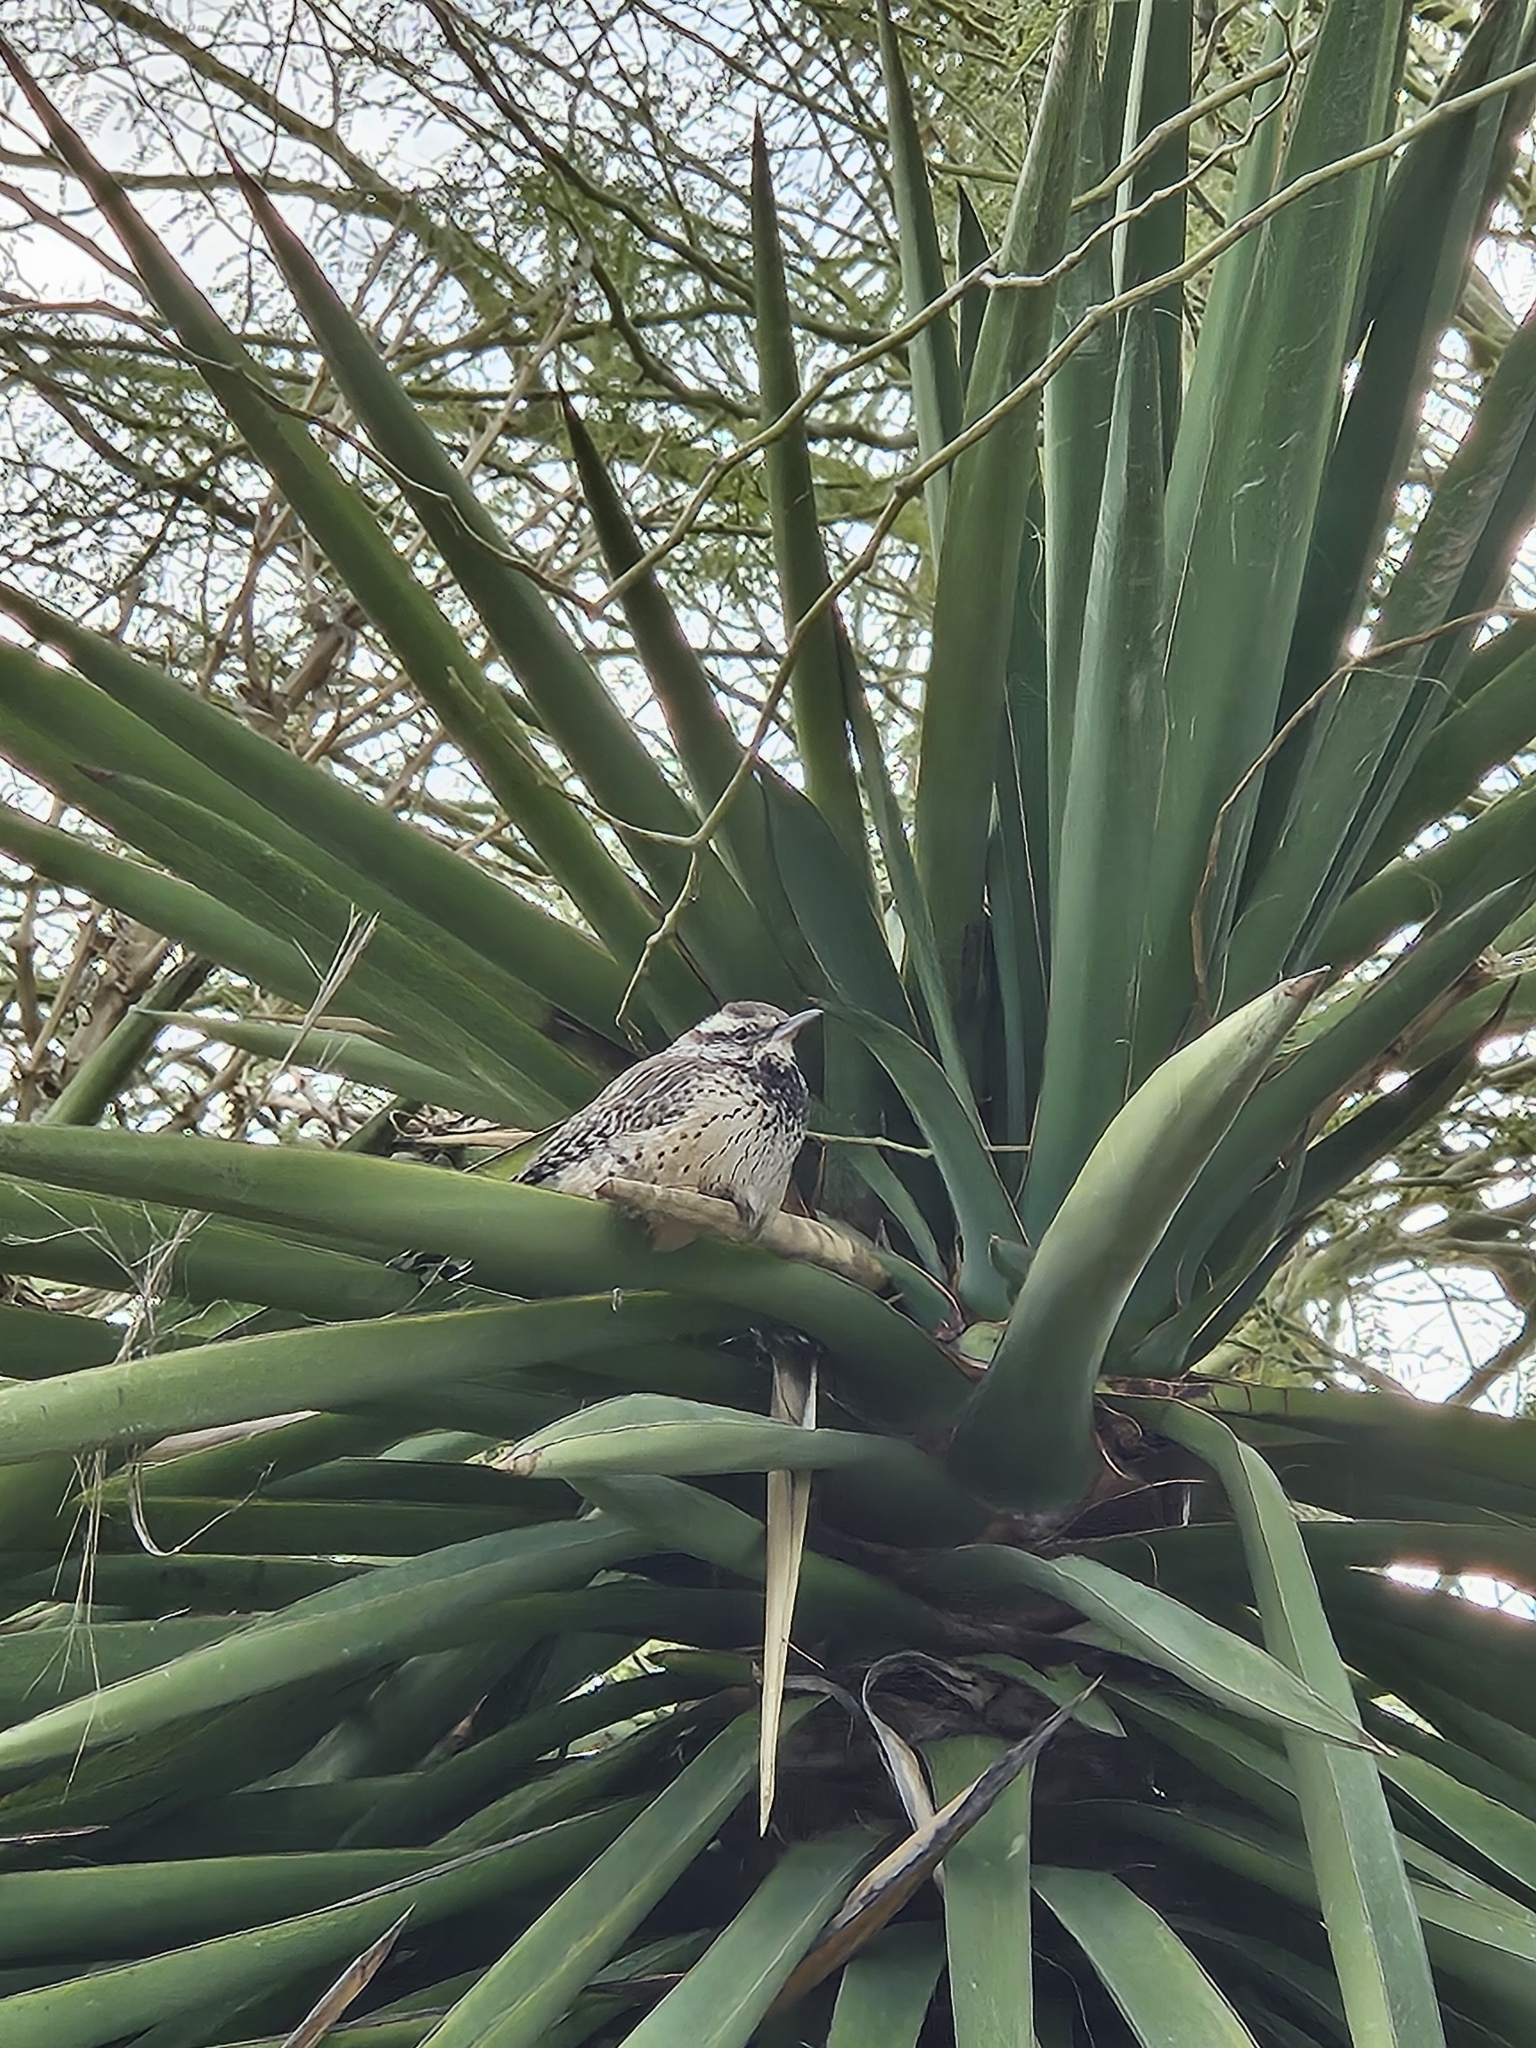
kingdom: Animalia
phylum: Chordata
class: Aves
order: Passeriformes
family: Troglodytidae
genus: Campylorhynchus
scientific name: Campylorhynchus brunneicapillus
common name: Cactus wren
